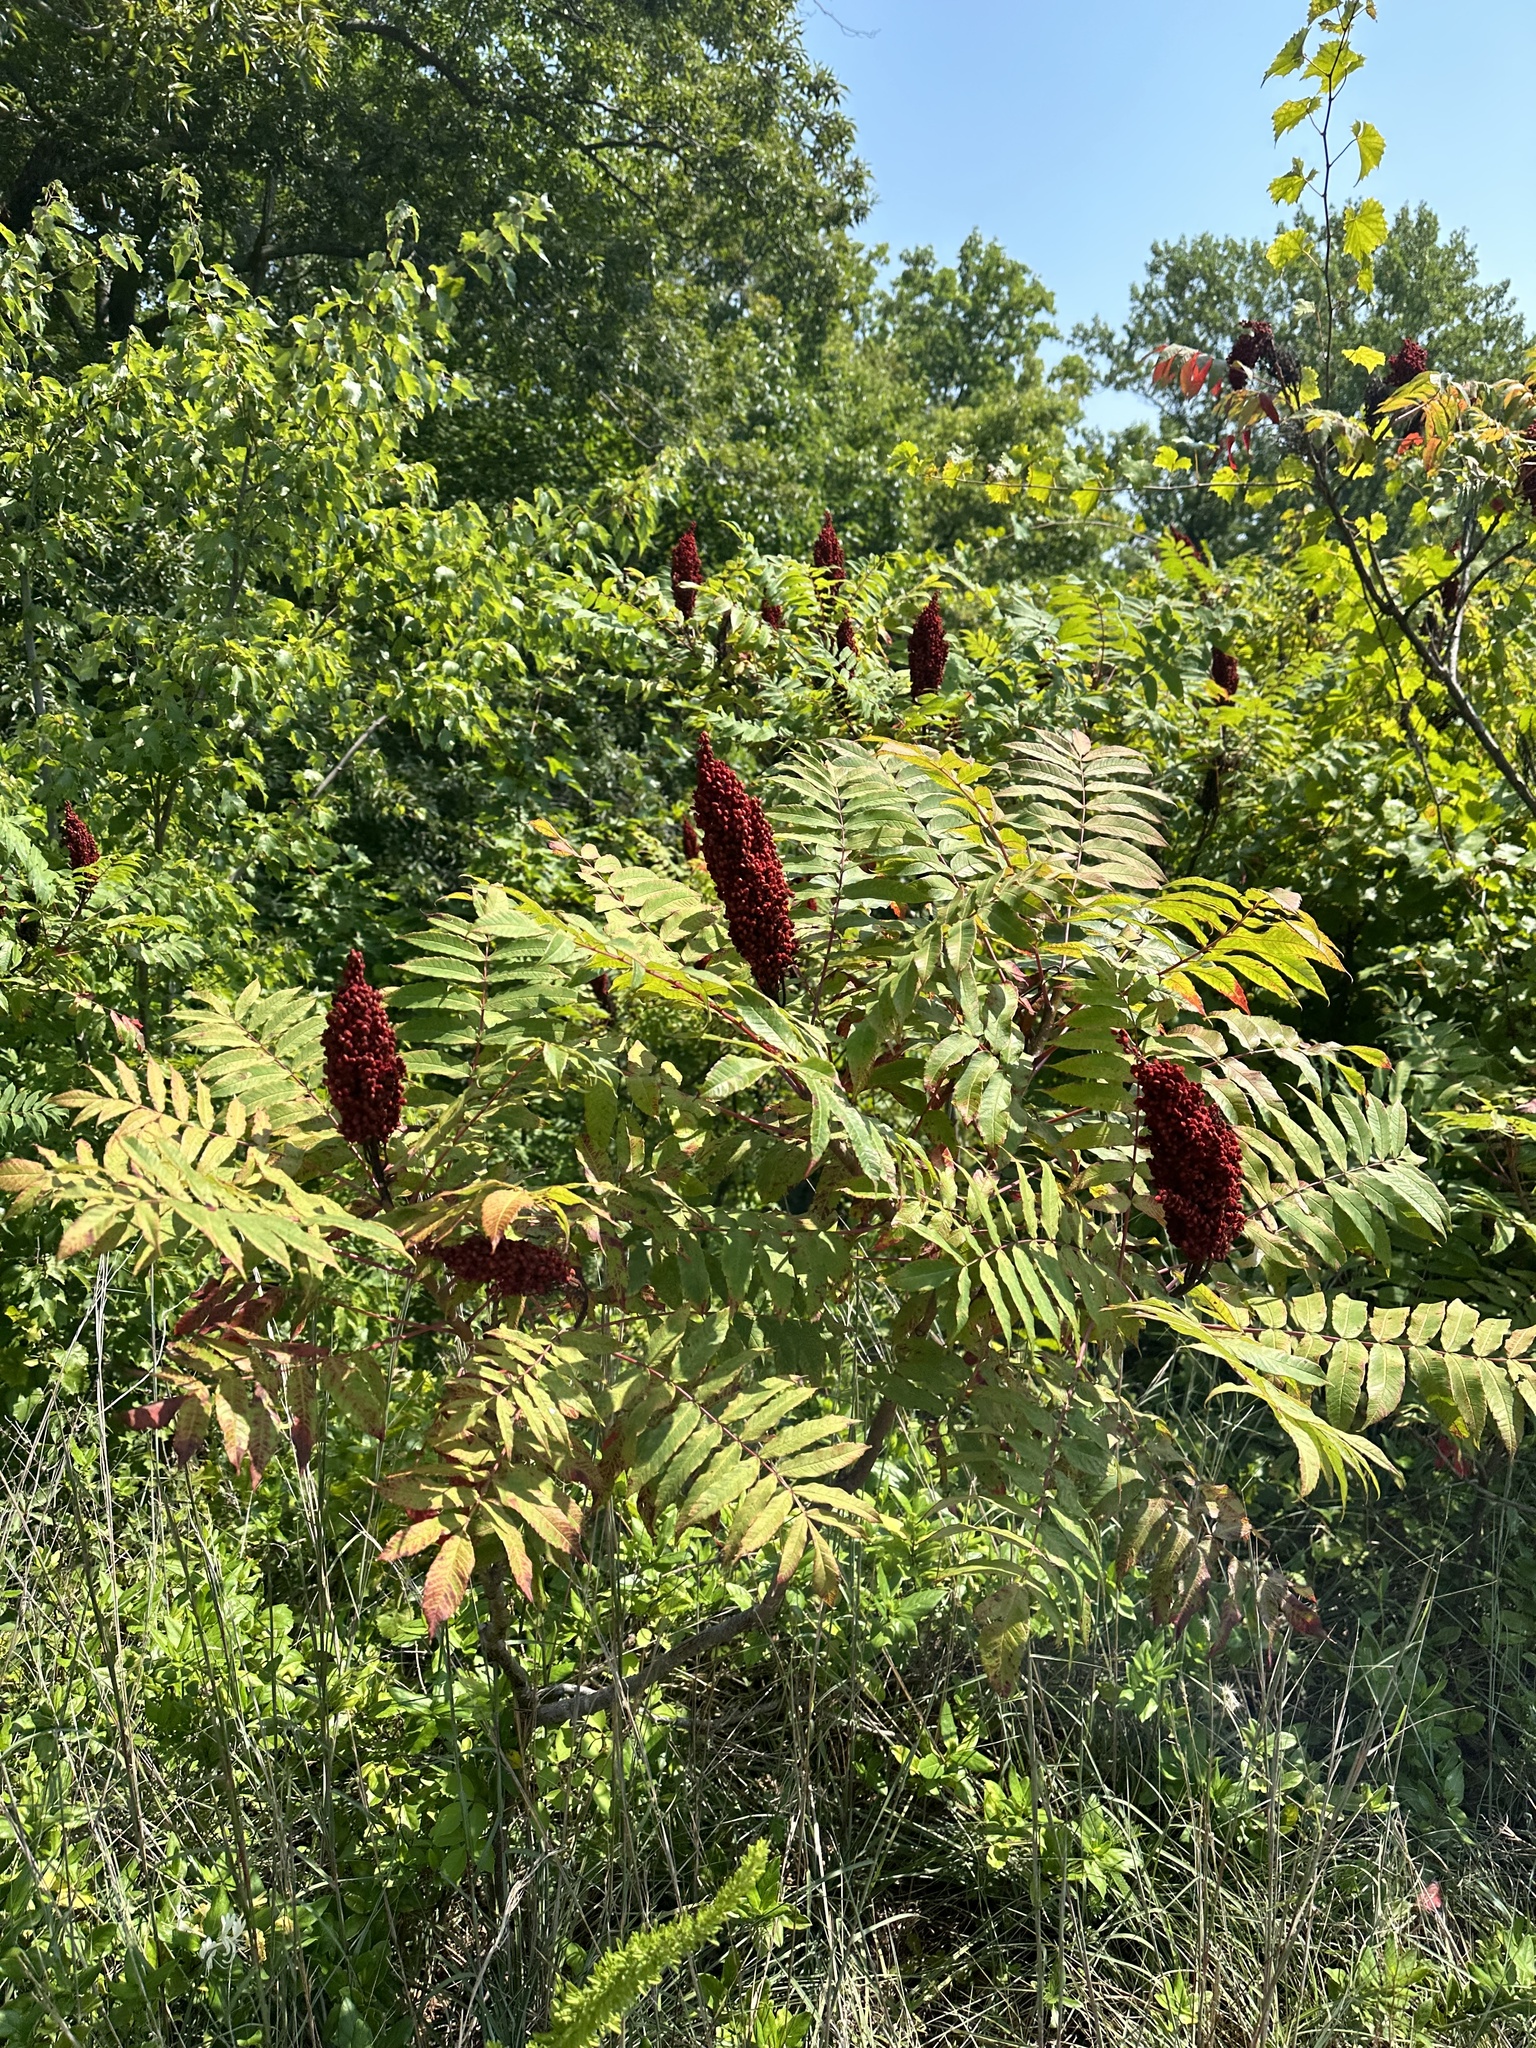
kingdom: Plantae
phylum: Tracheophyta
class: Magnoliopsida
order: Sapindales
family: Anacardiaceae
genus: Rhus
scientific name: Rhus glabra
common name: Scarlet sumac
